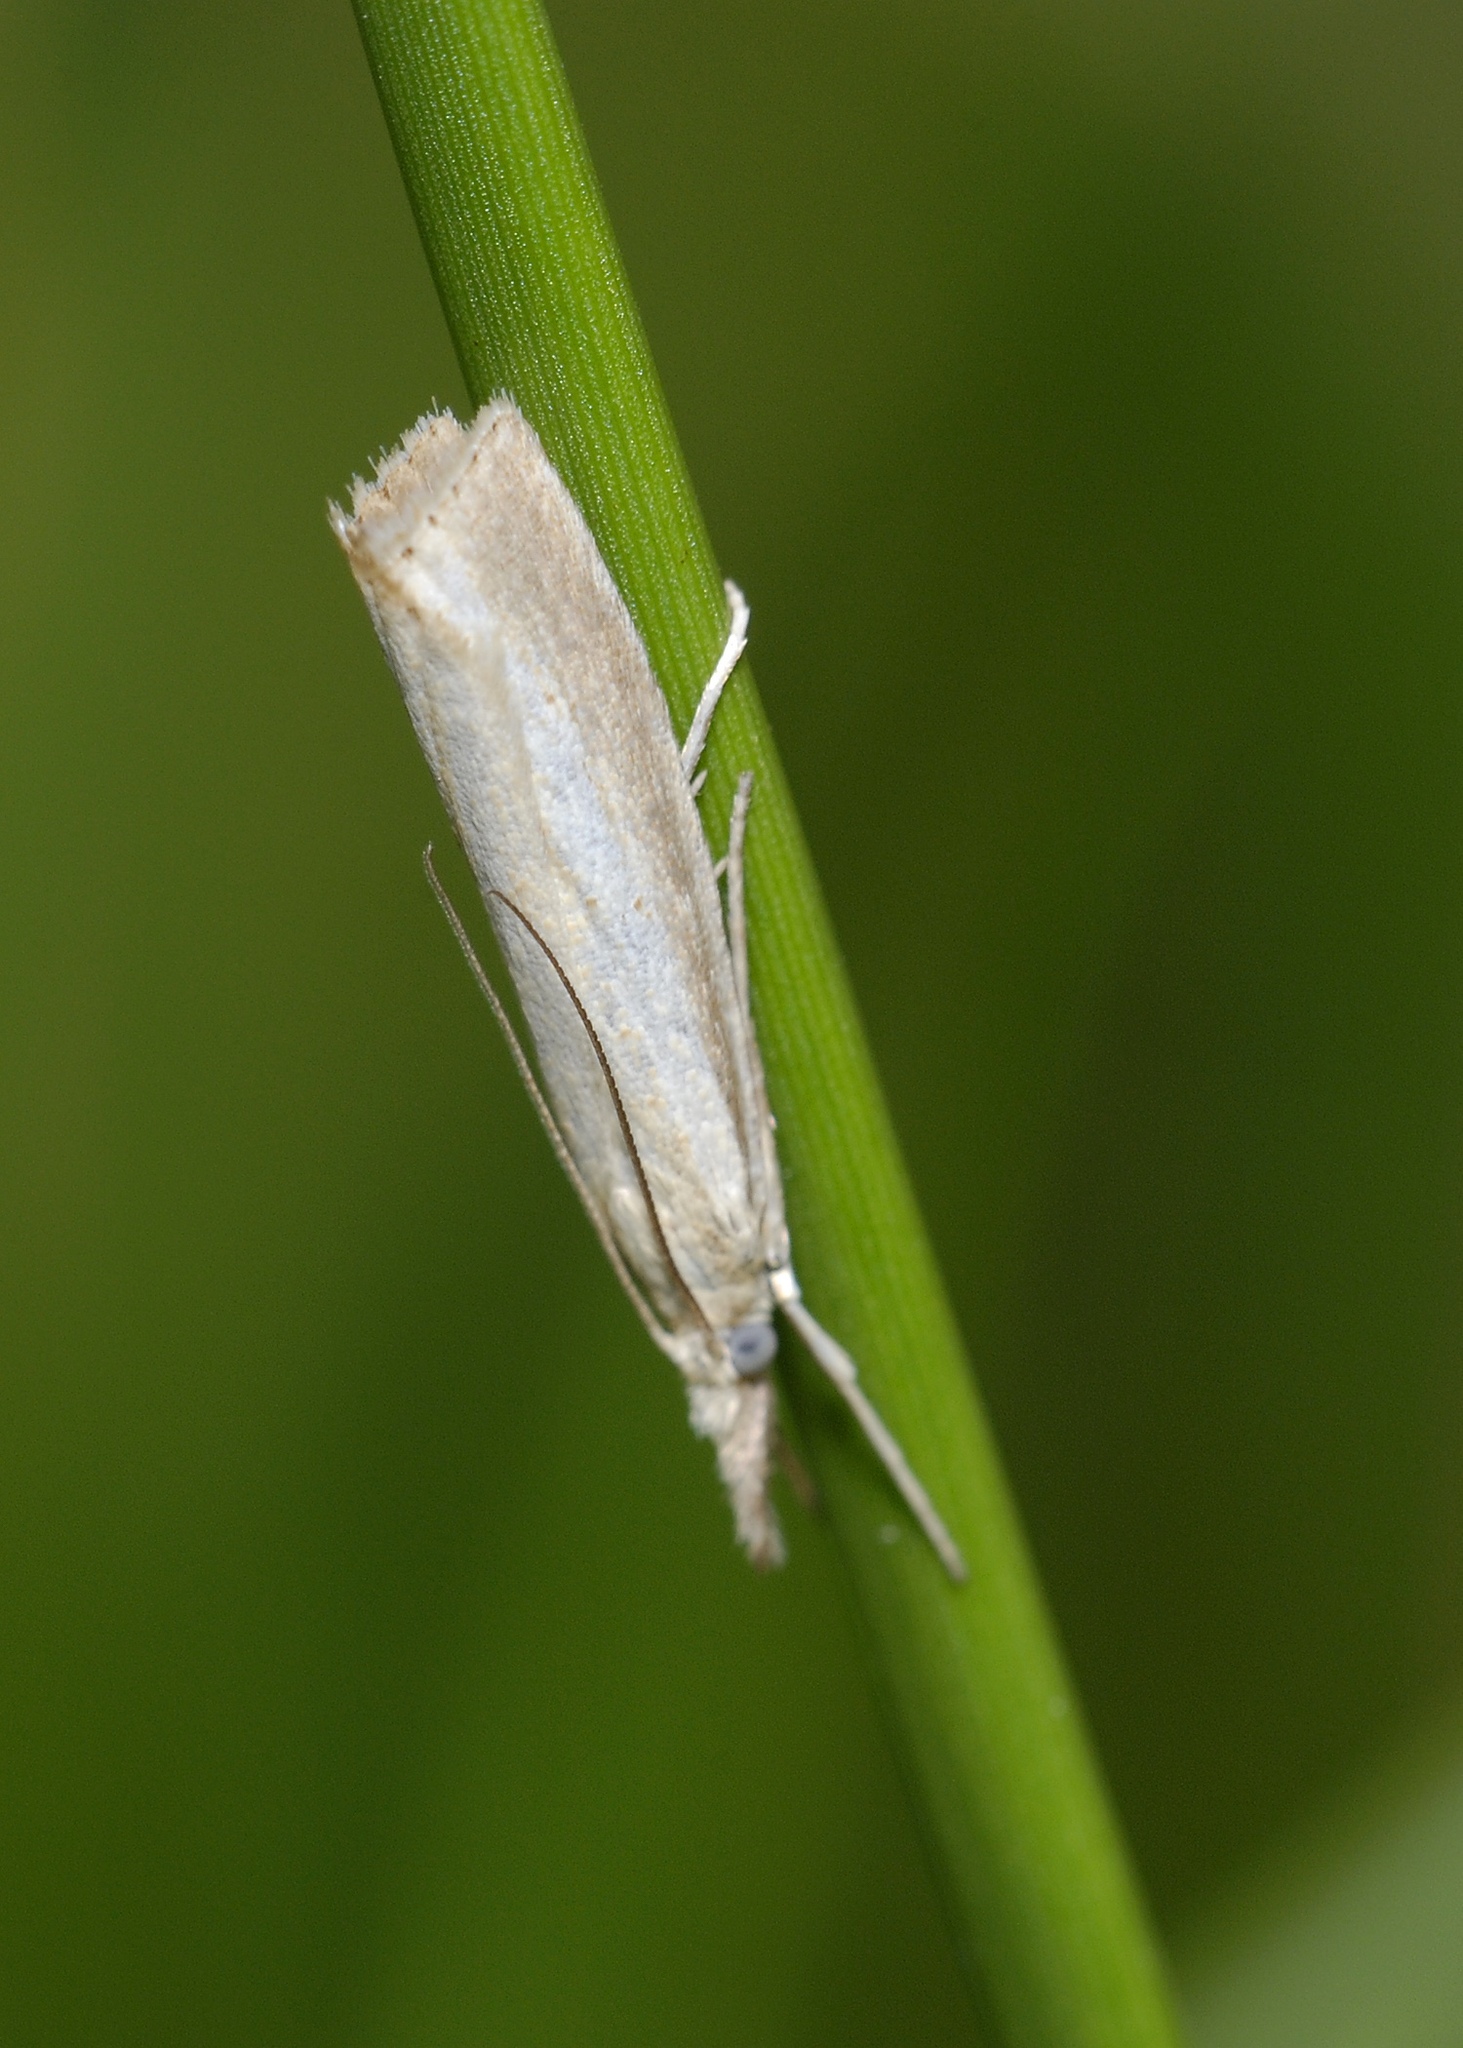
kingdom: Animalia
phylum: Arthropoda
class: Insecta
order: Lepidoptera
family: Crambidae
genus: Agriphila
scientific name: Agriphila straminella
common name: Straw grass-veneer
